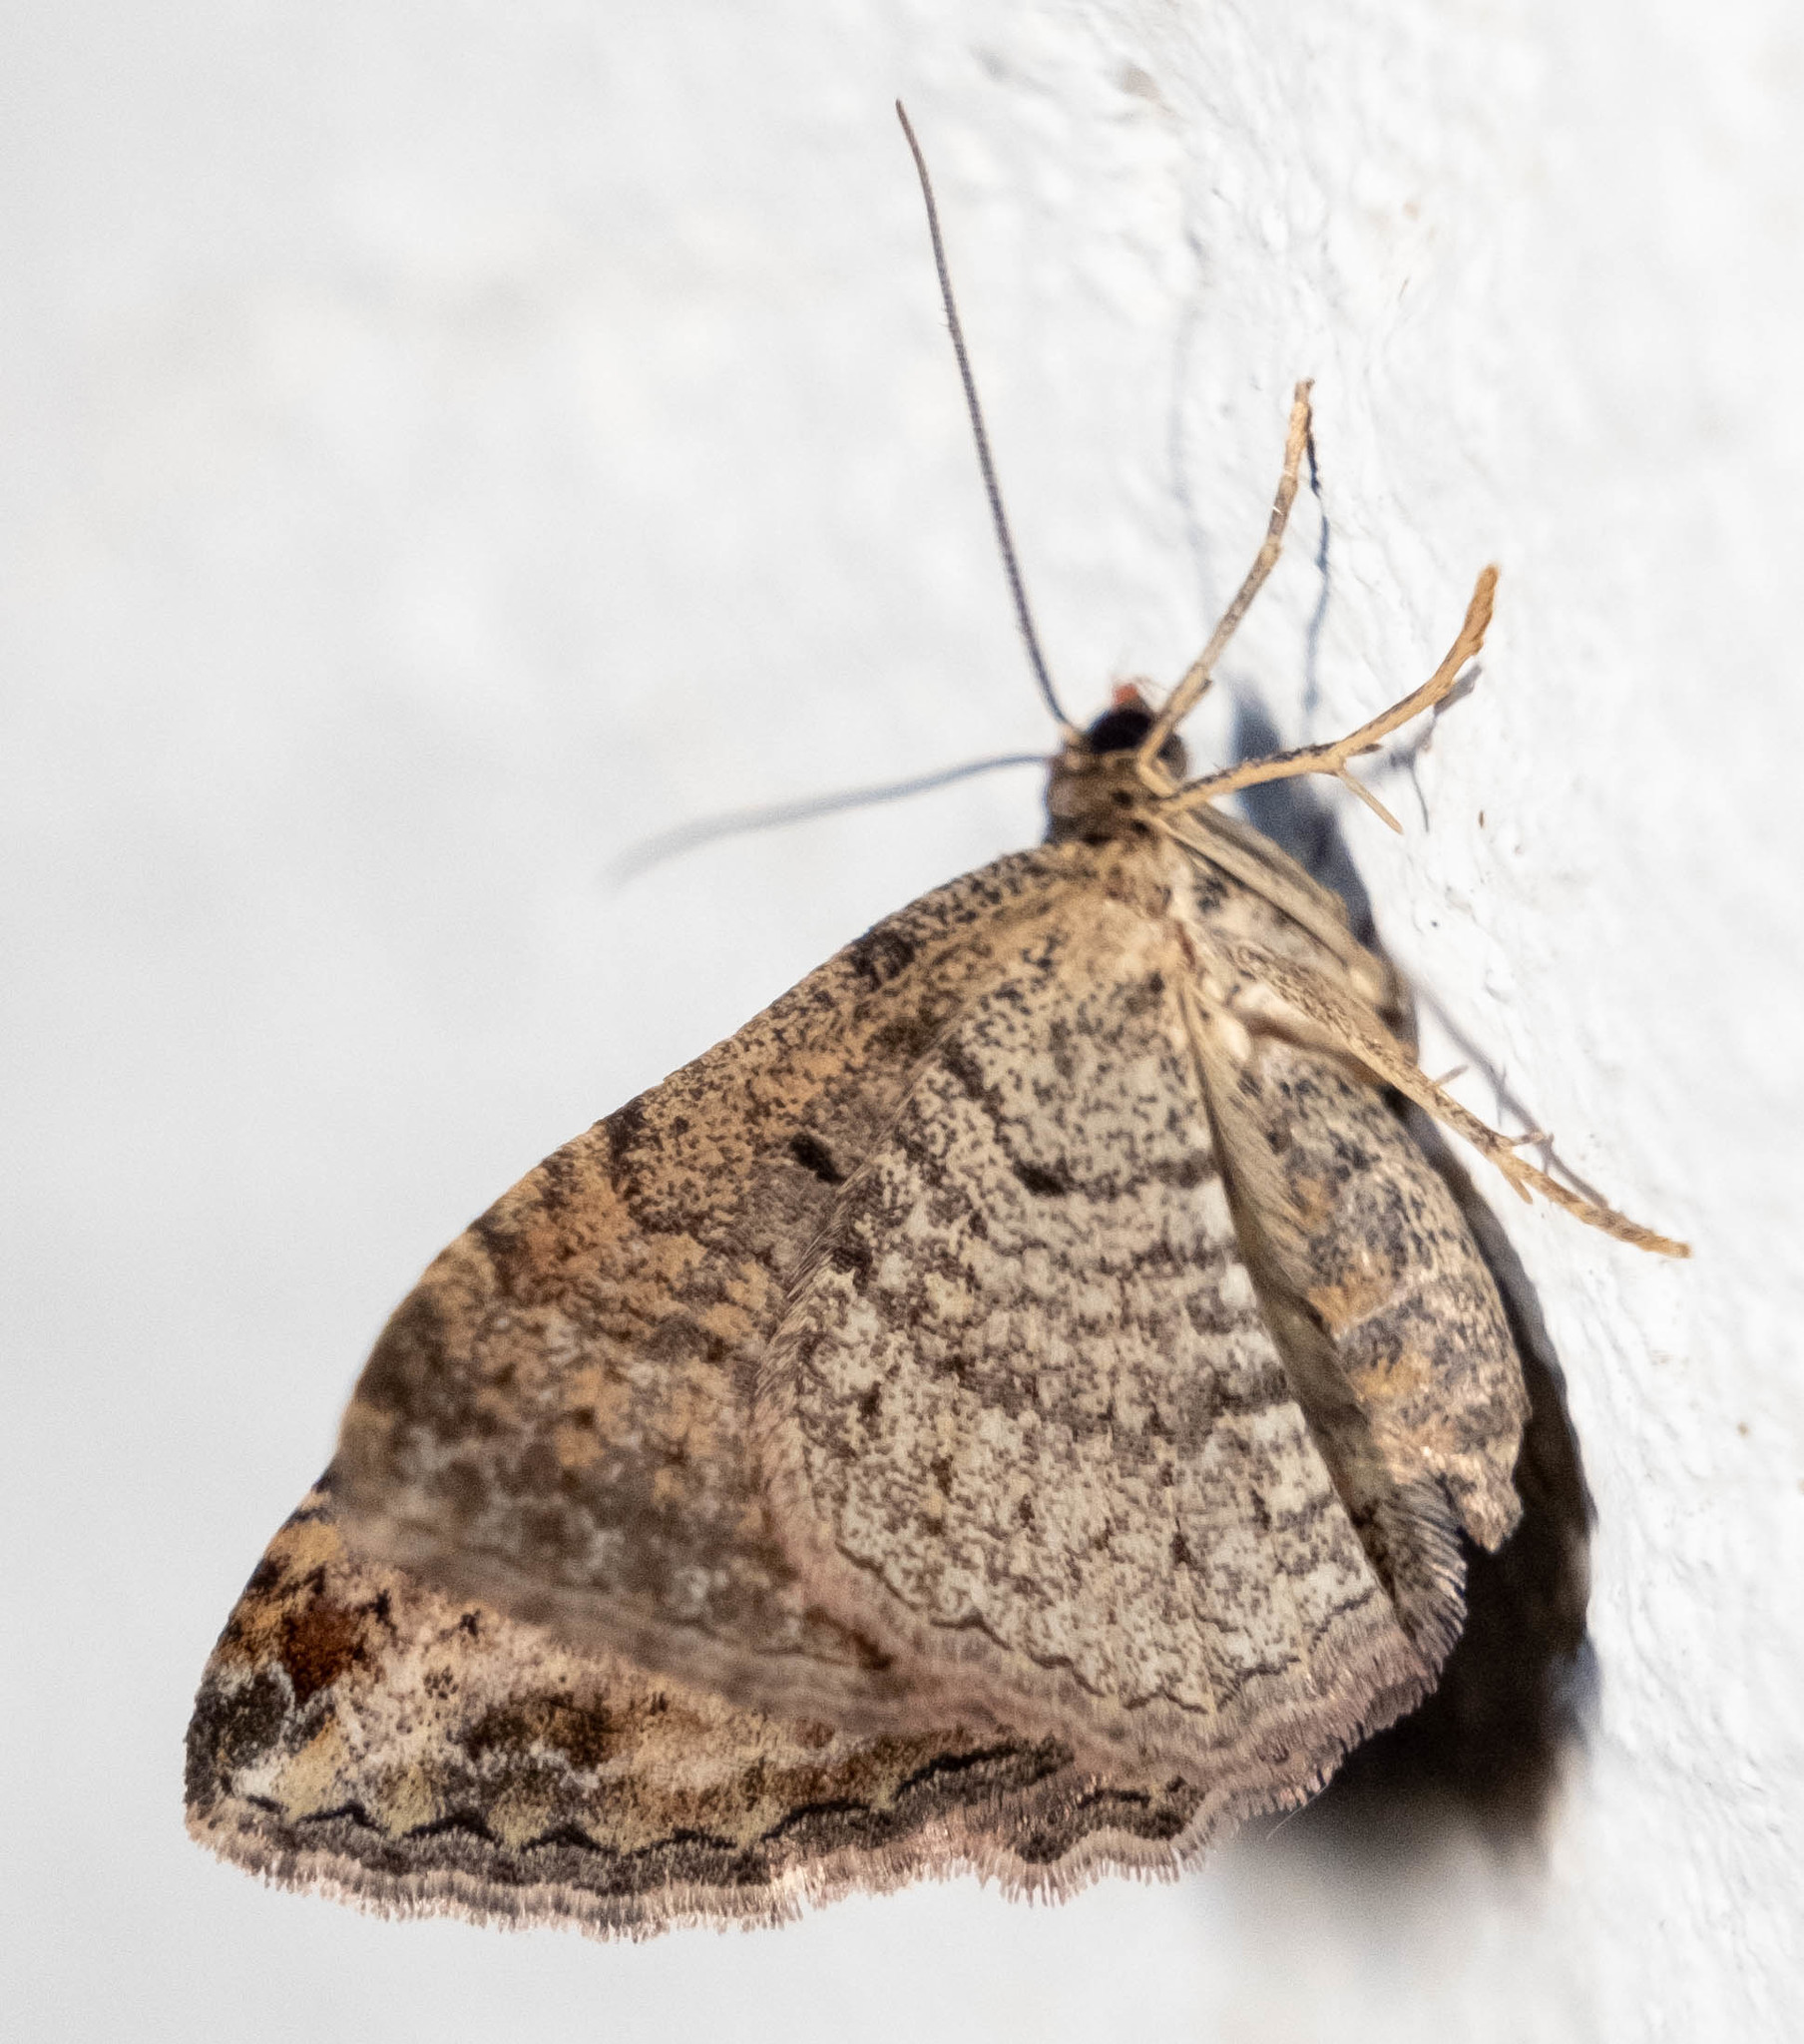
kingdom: Animalia
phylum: Arthropoda
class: Insecta
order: Lepidoptera
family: Geometridae
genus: Costaconvexa
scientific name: Costaconvexa centrostrigaria
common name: Bent-line carpet
